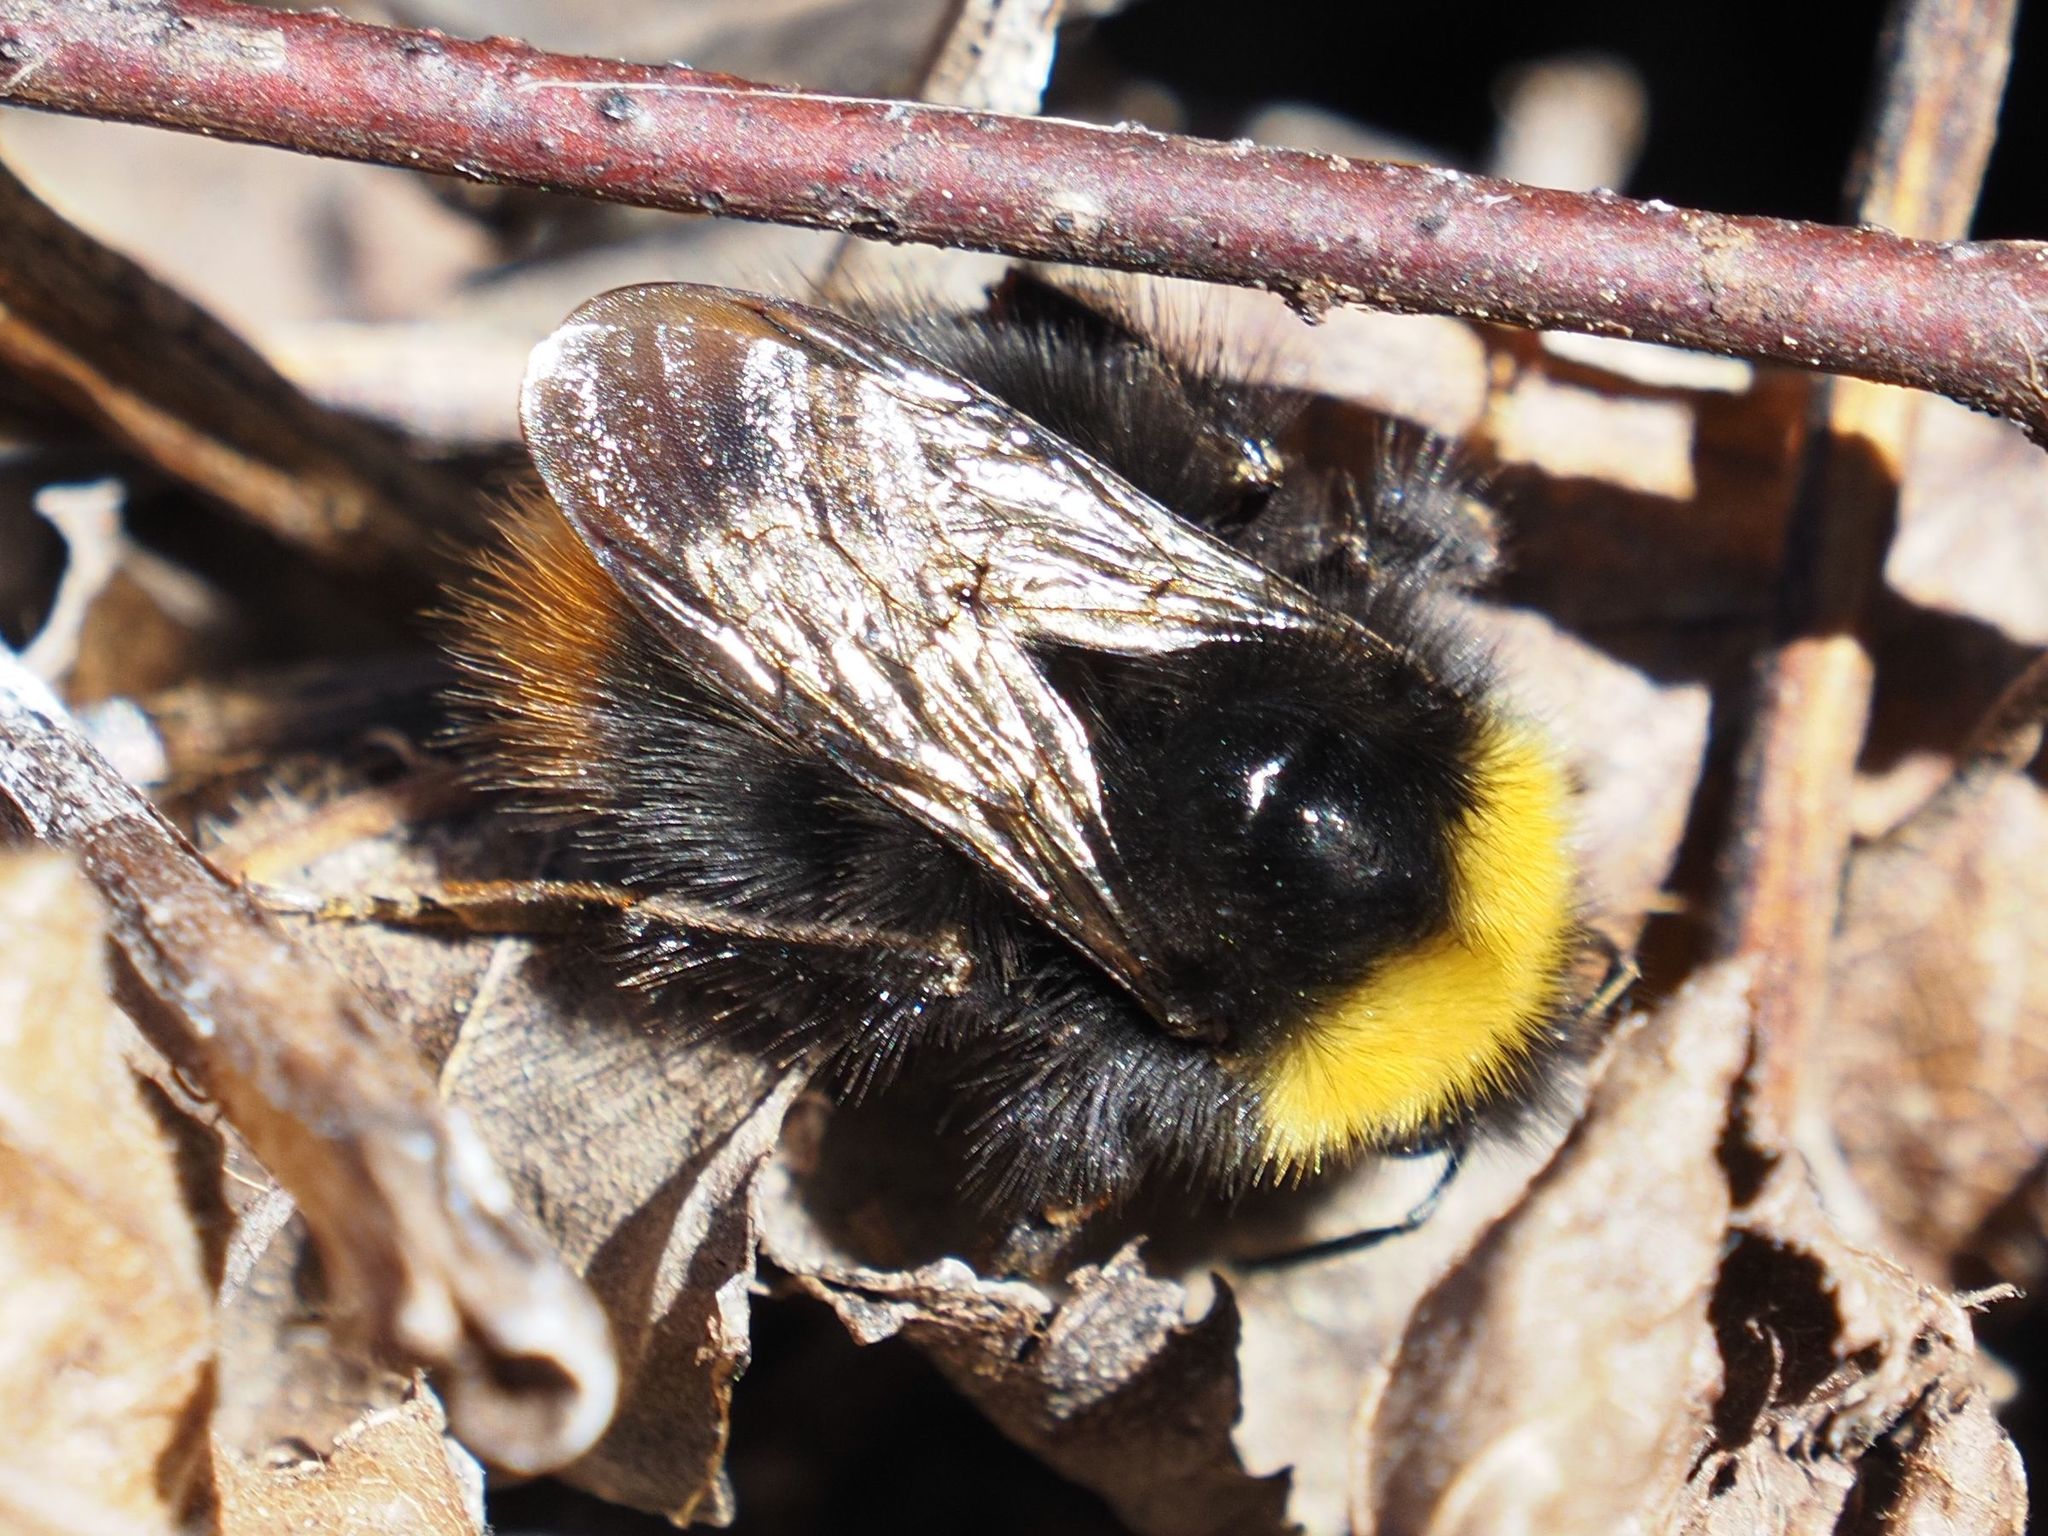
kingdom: Animalia
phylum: Arthropoda
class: Insecta
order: Hymenoptera
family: Apidae
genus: Bombus
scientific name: Bombus pratorum
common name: Early humble-bee
